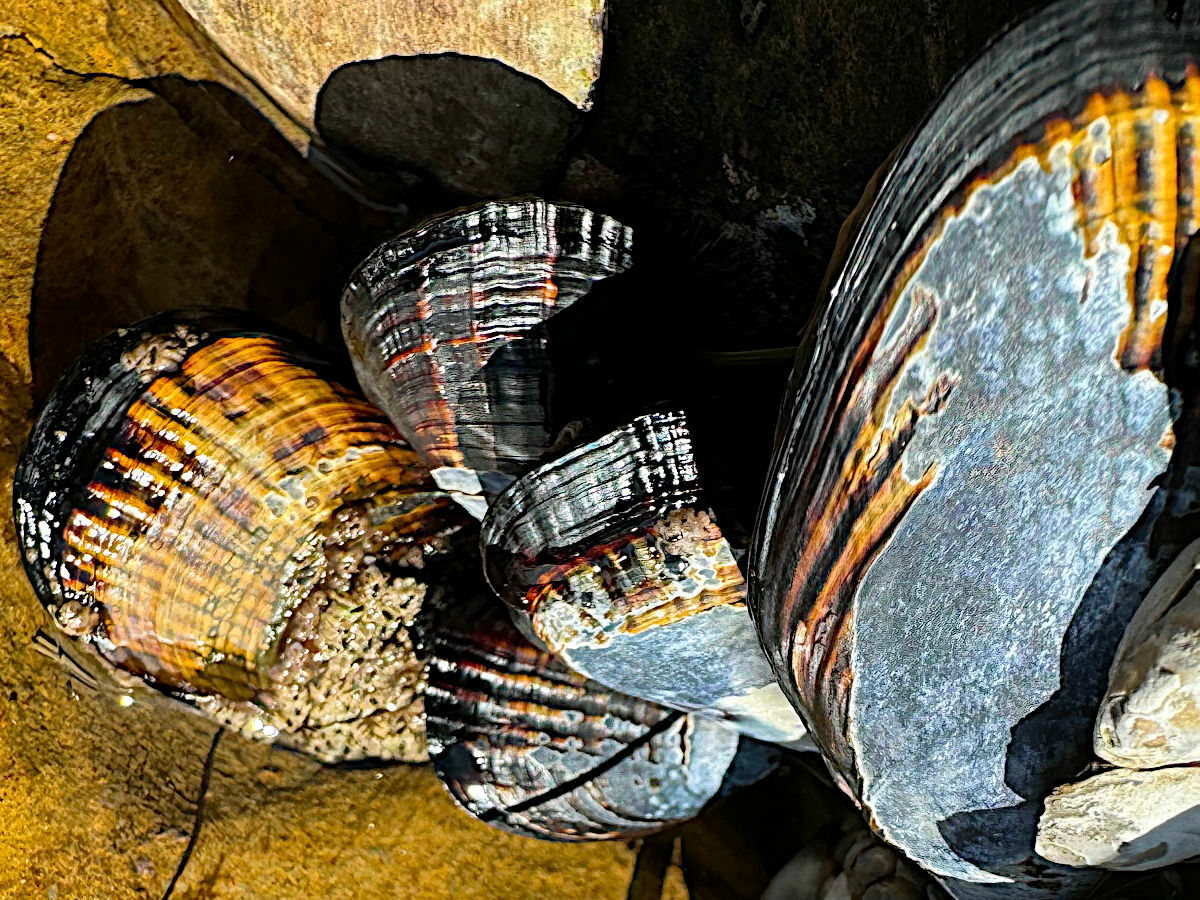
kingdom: Animalia
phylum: Mollusca
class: Bivalvia
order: Mytilida
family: Mytilidae
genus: Mytilus
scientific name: Mytilus californianus
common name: California mussel
